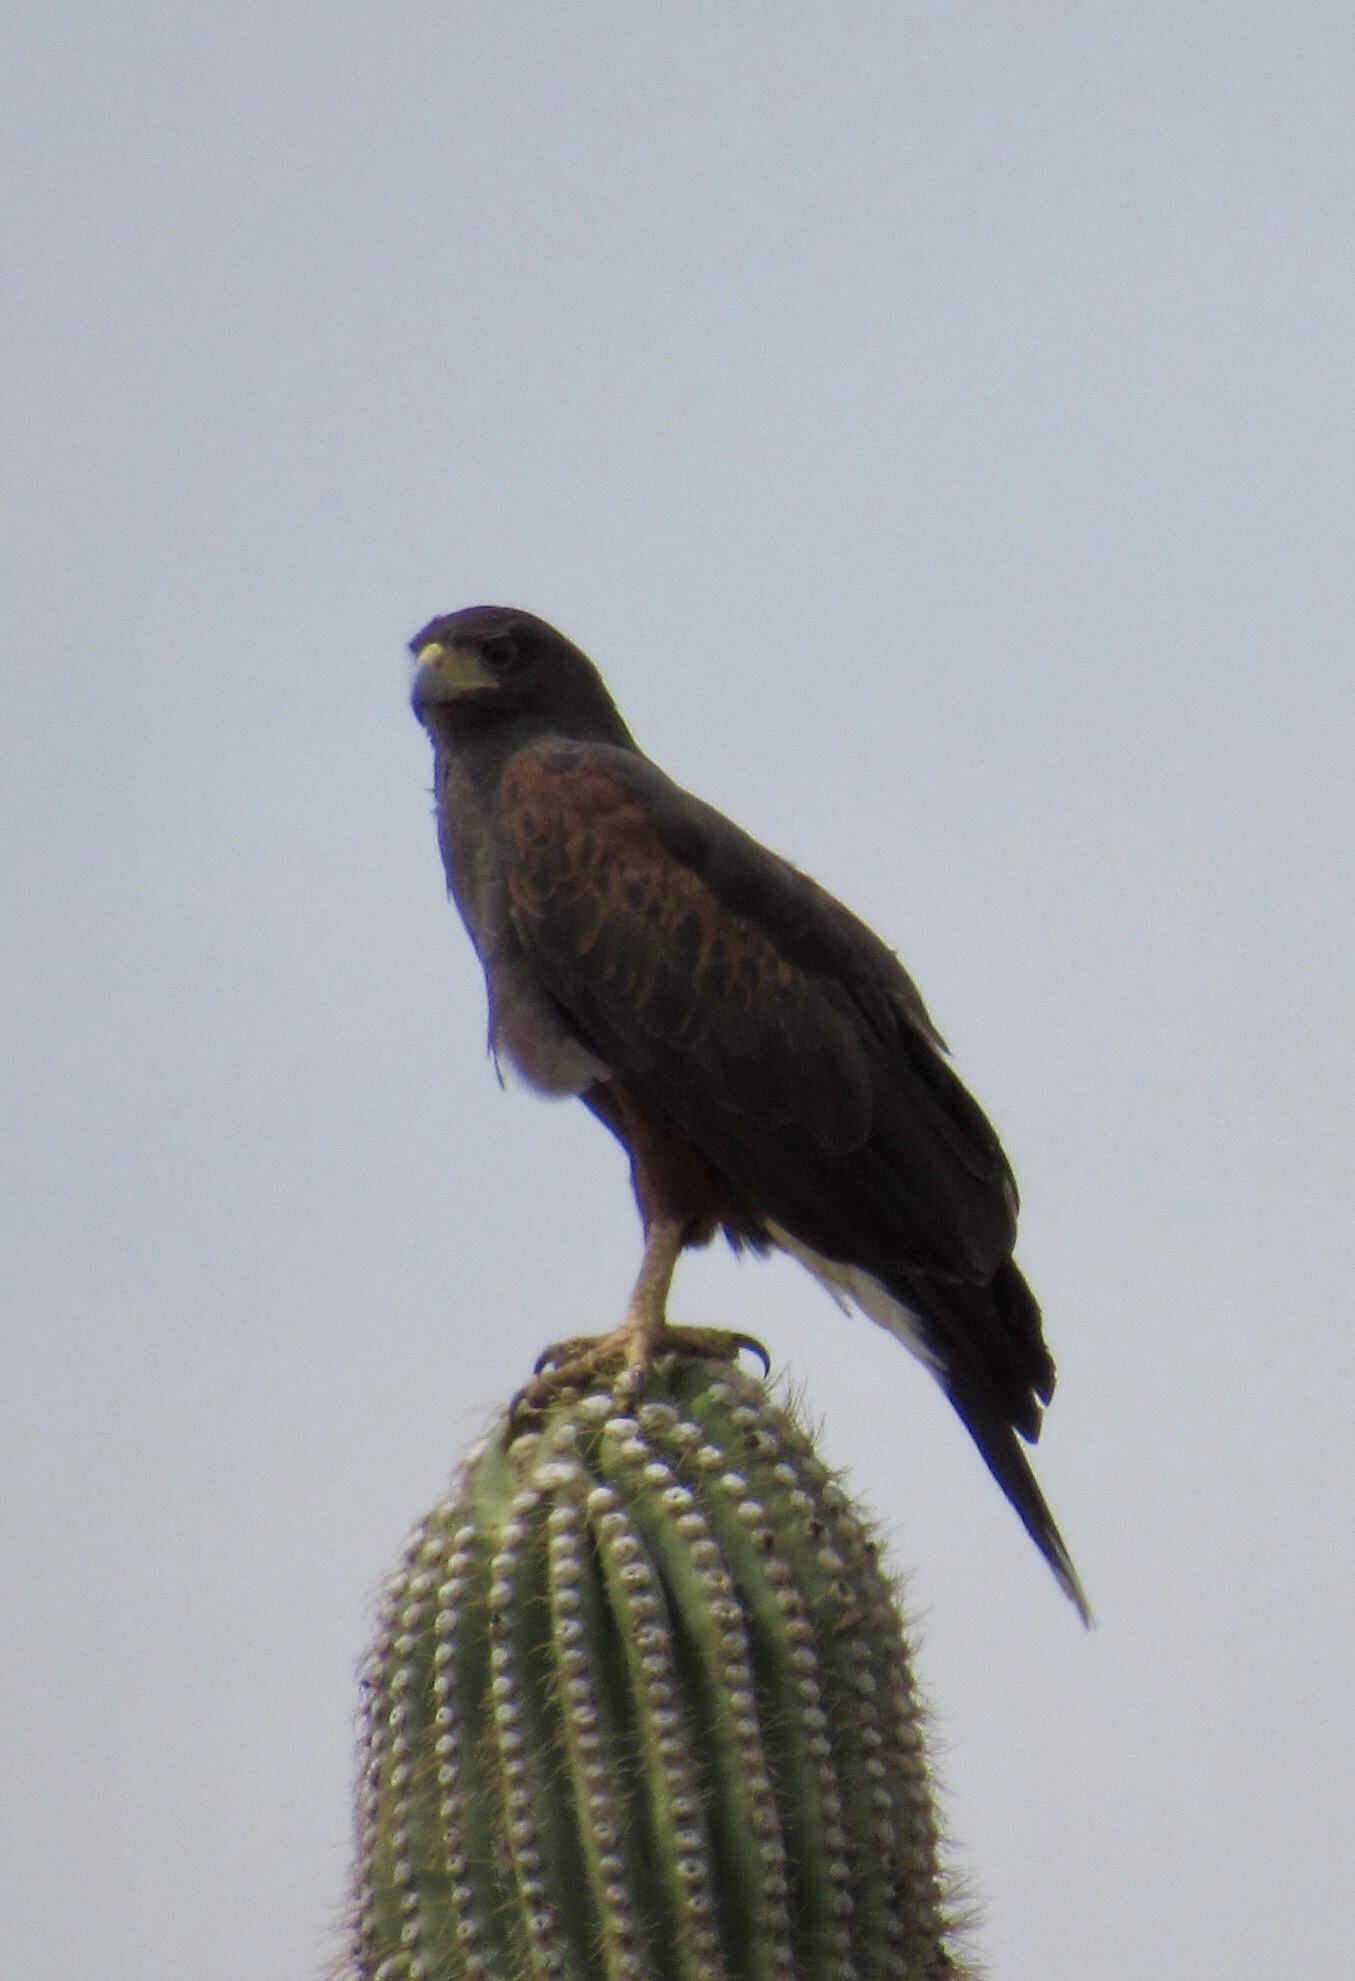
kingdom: Animalia
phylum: Chordata
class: Aves
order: Accipitriformes
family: Accipitridae
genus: Parabuteo
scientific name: Parabuteo unicinctus
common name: Harris's hawk
